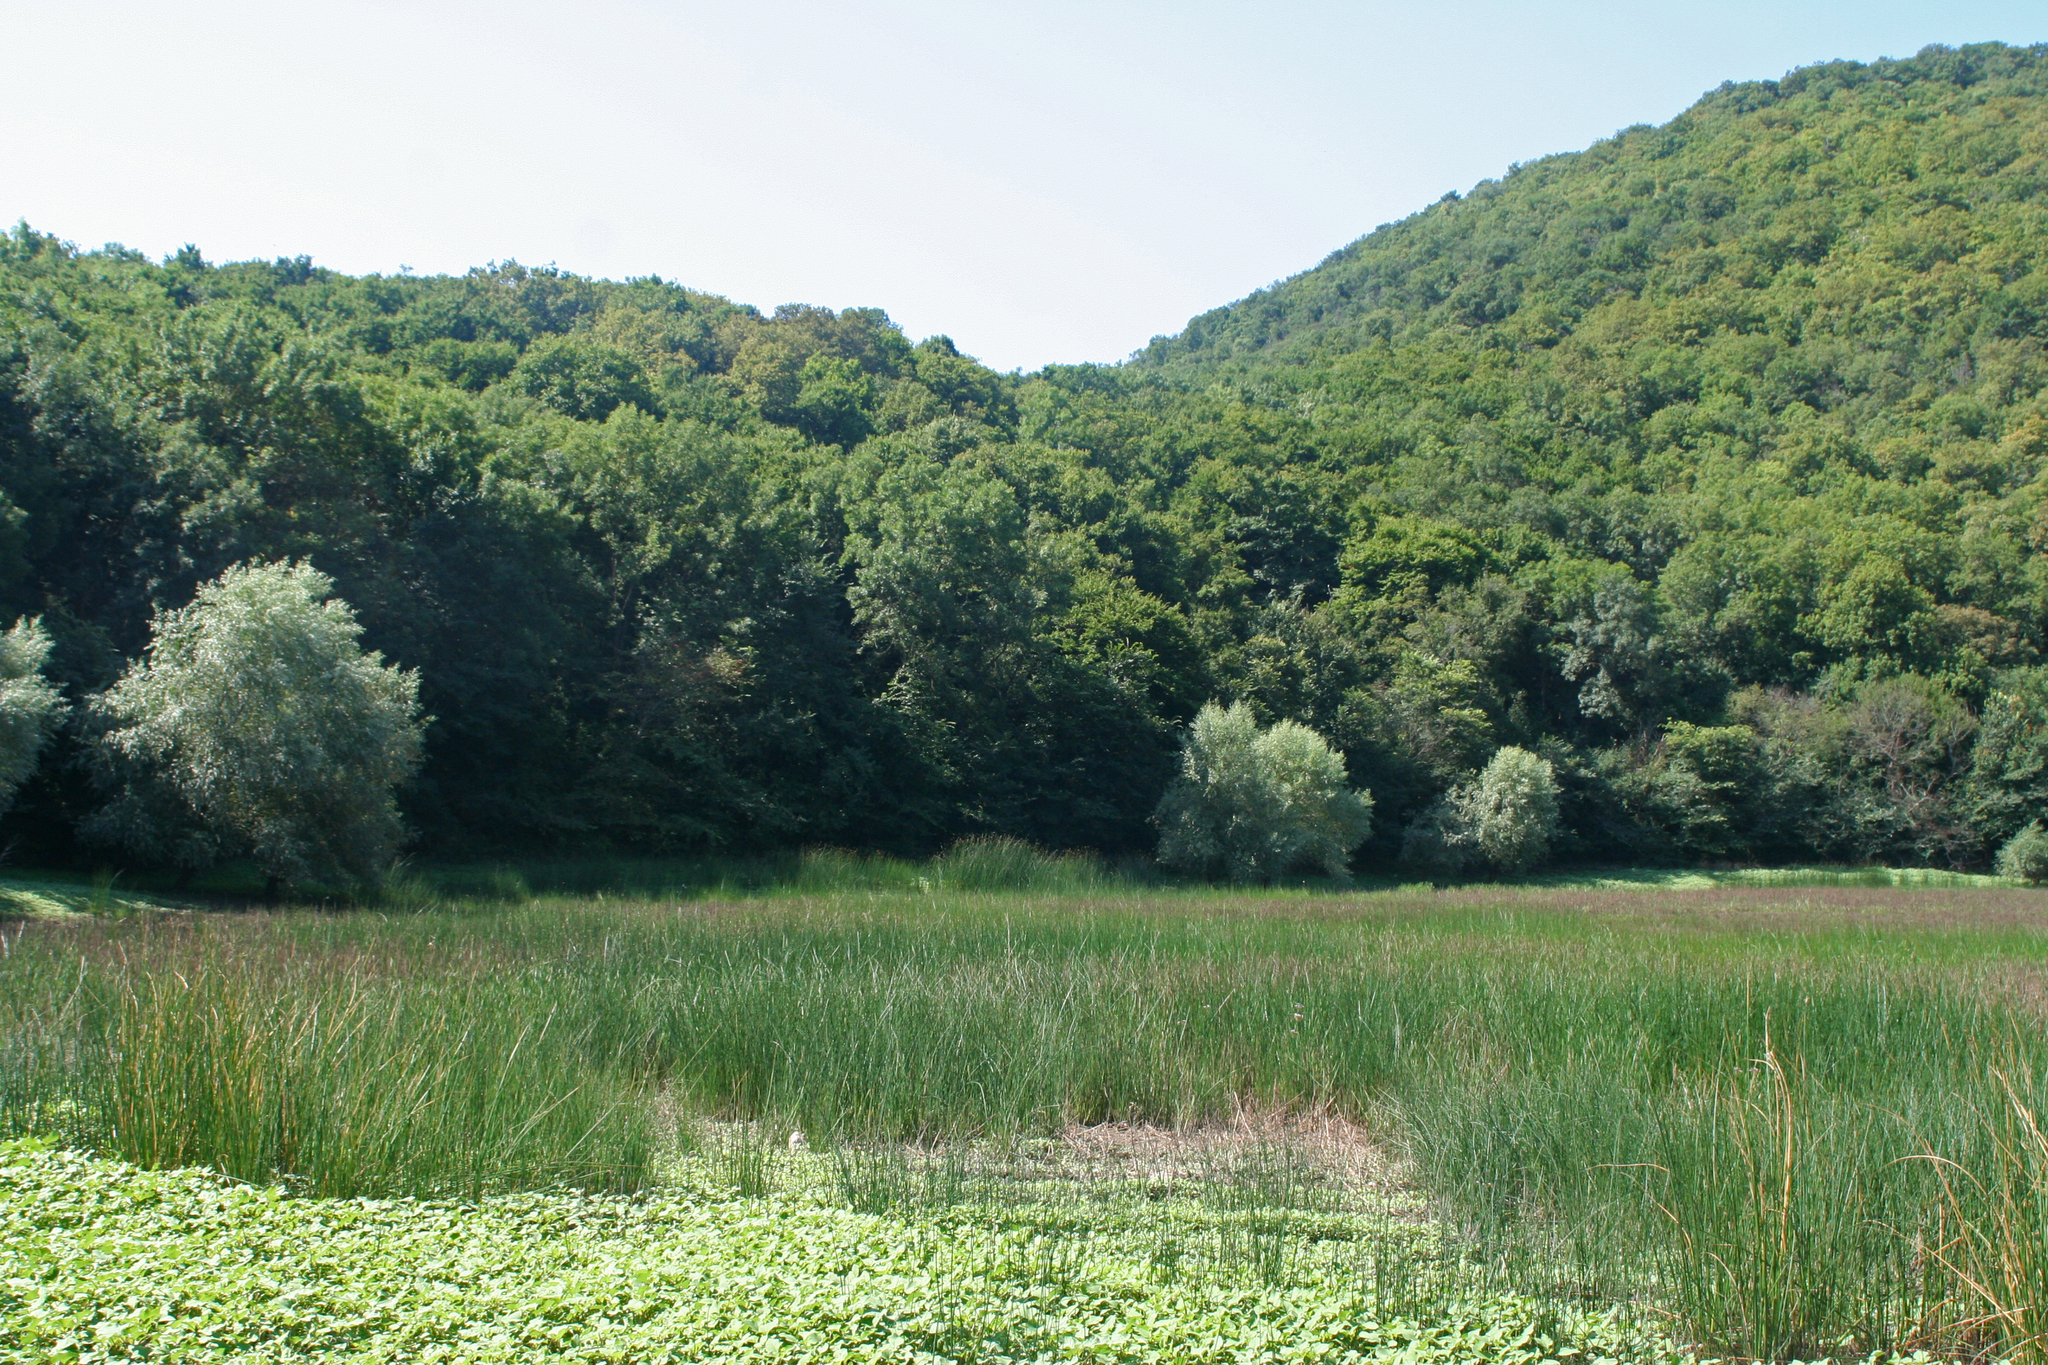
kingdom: Plantae
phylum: Tracheophyta
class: Magnoliopsida
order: Asterales
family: Asteraceae
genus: Xanthium
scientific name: Xanthium orientale
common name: Californian burr
